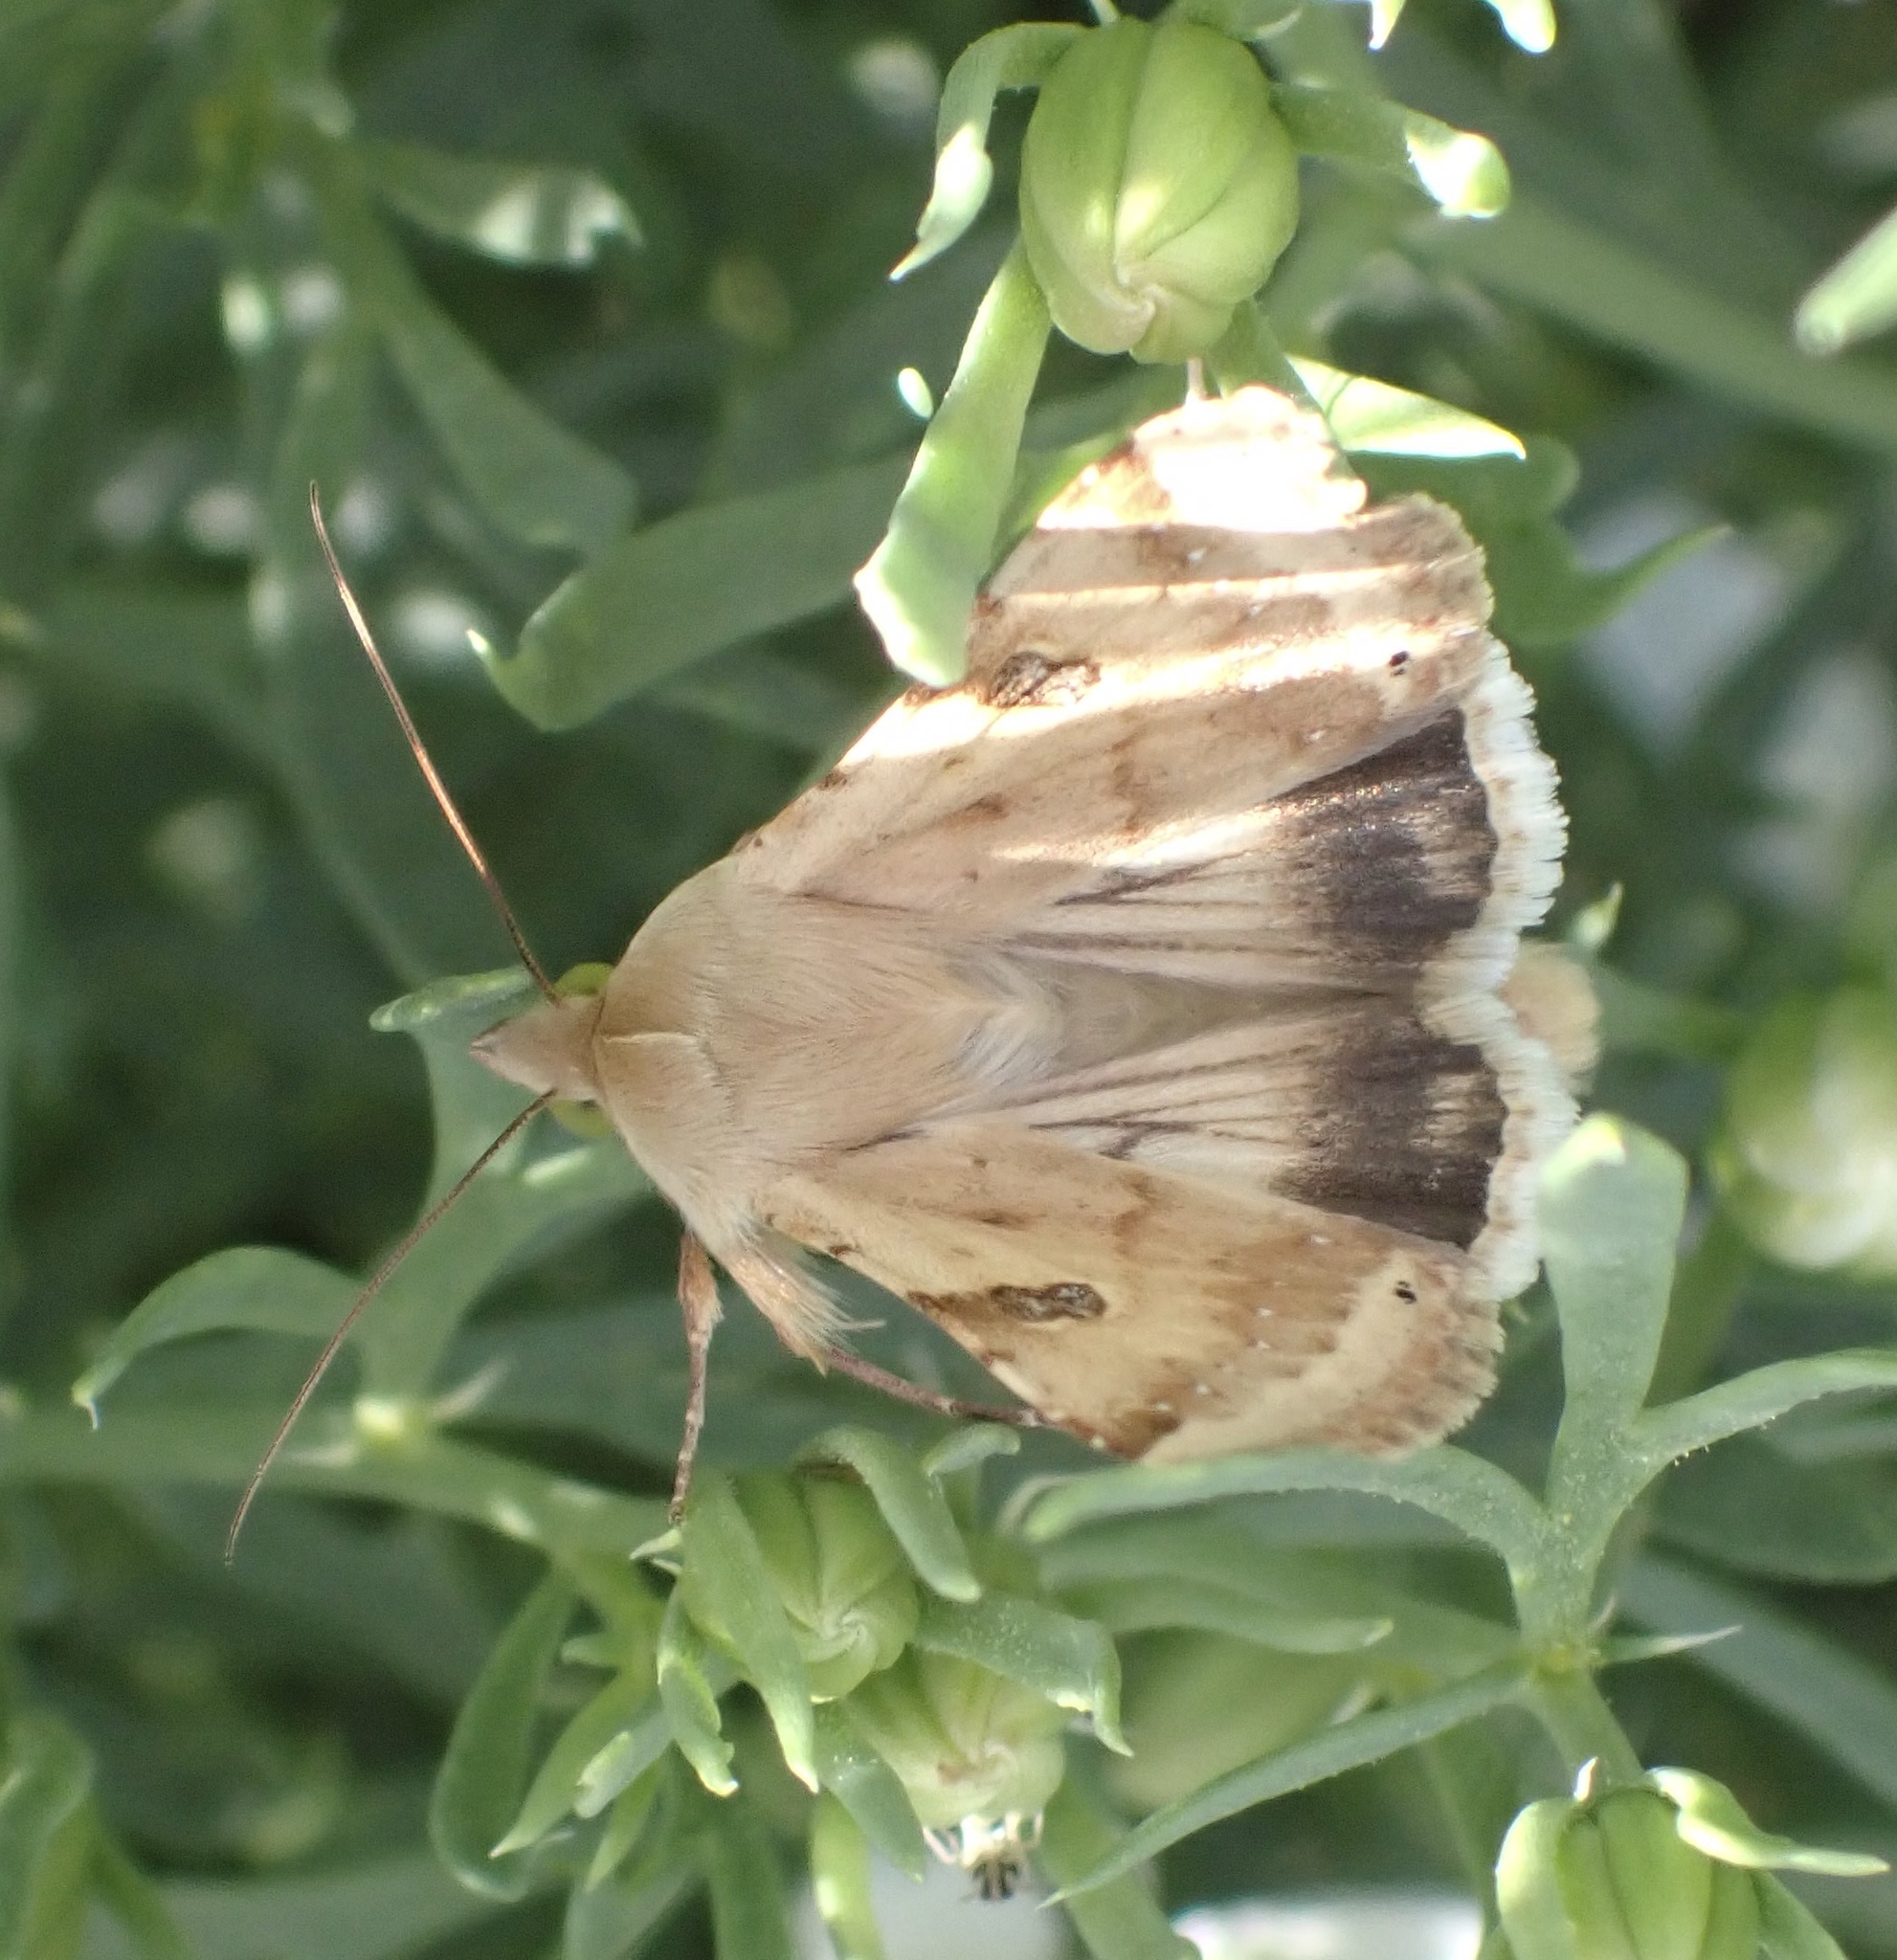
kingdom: Animalia
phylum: Arthropoda
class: Insecta
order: Lepidoptera
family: Noctuidae
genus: Heliothis
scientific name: Heliothis peltigera
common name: Bordered straw
